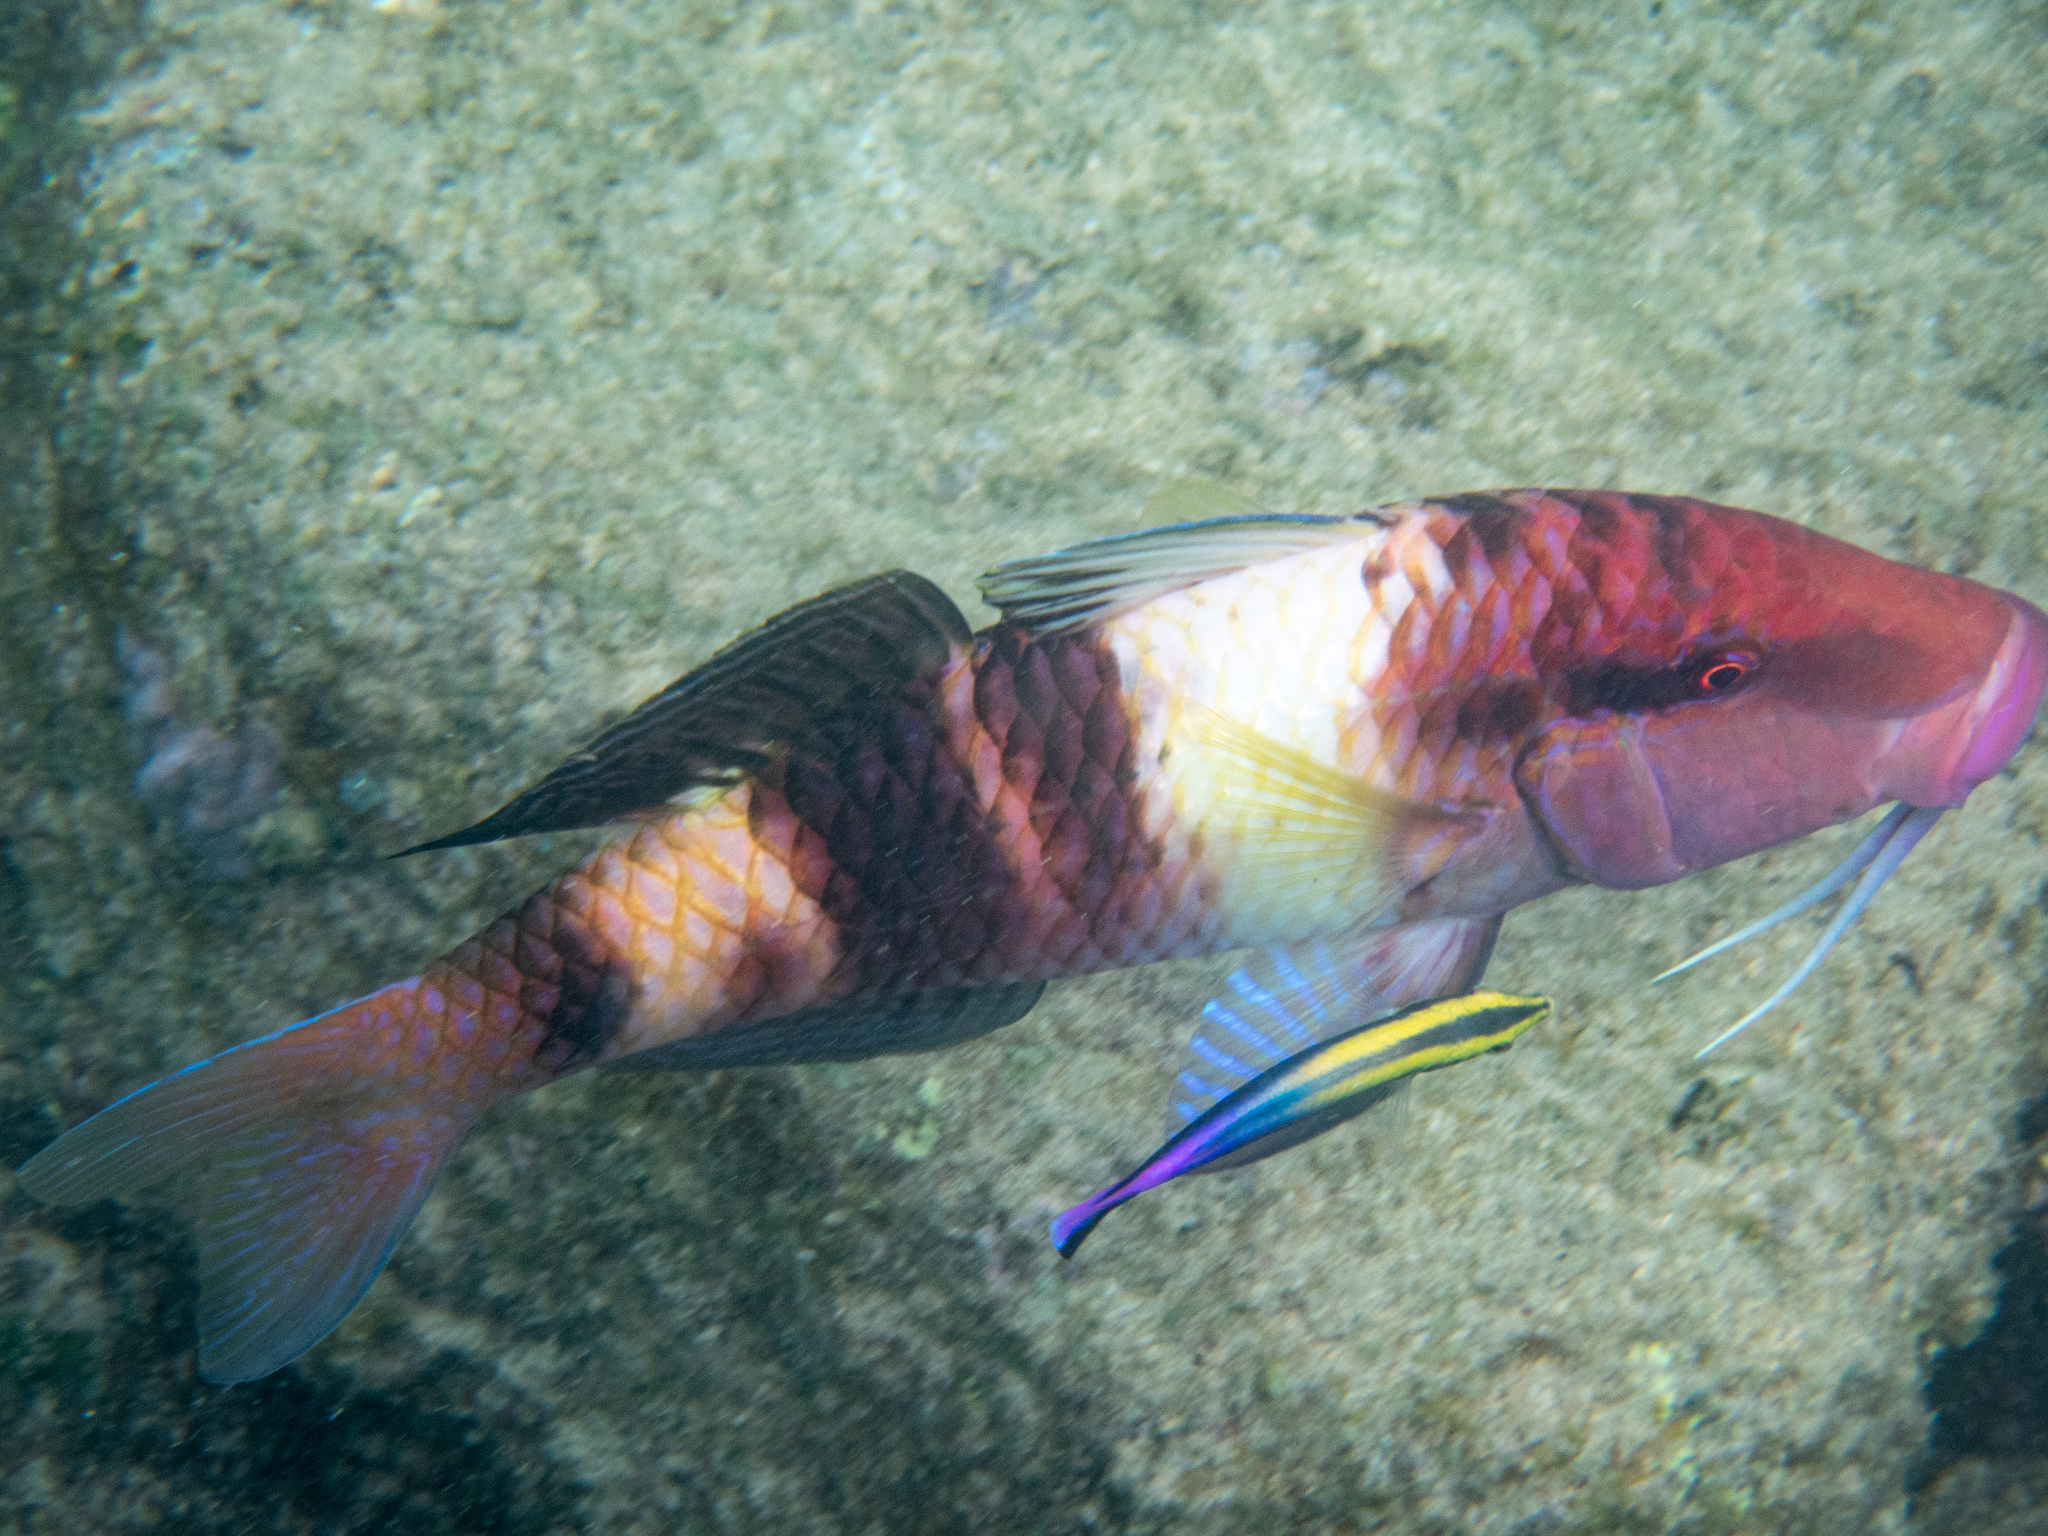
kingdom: Animalia
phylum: Chordata
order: Perciformes
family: Labridae
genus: Labroides
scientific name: Labroides phthirophagus
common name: Cleaner wrasse
